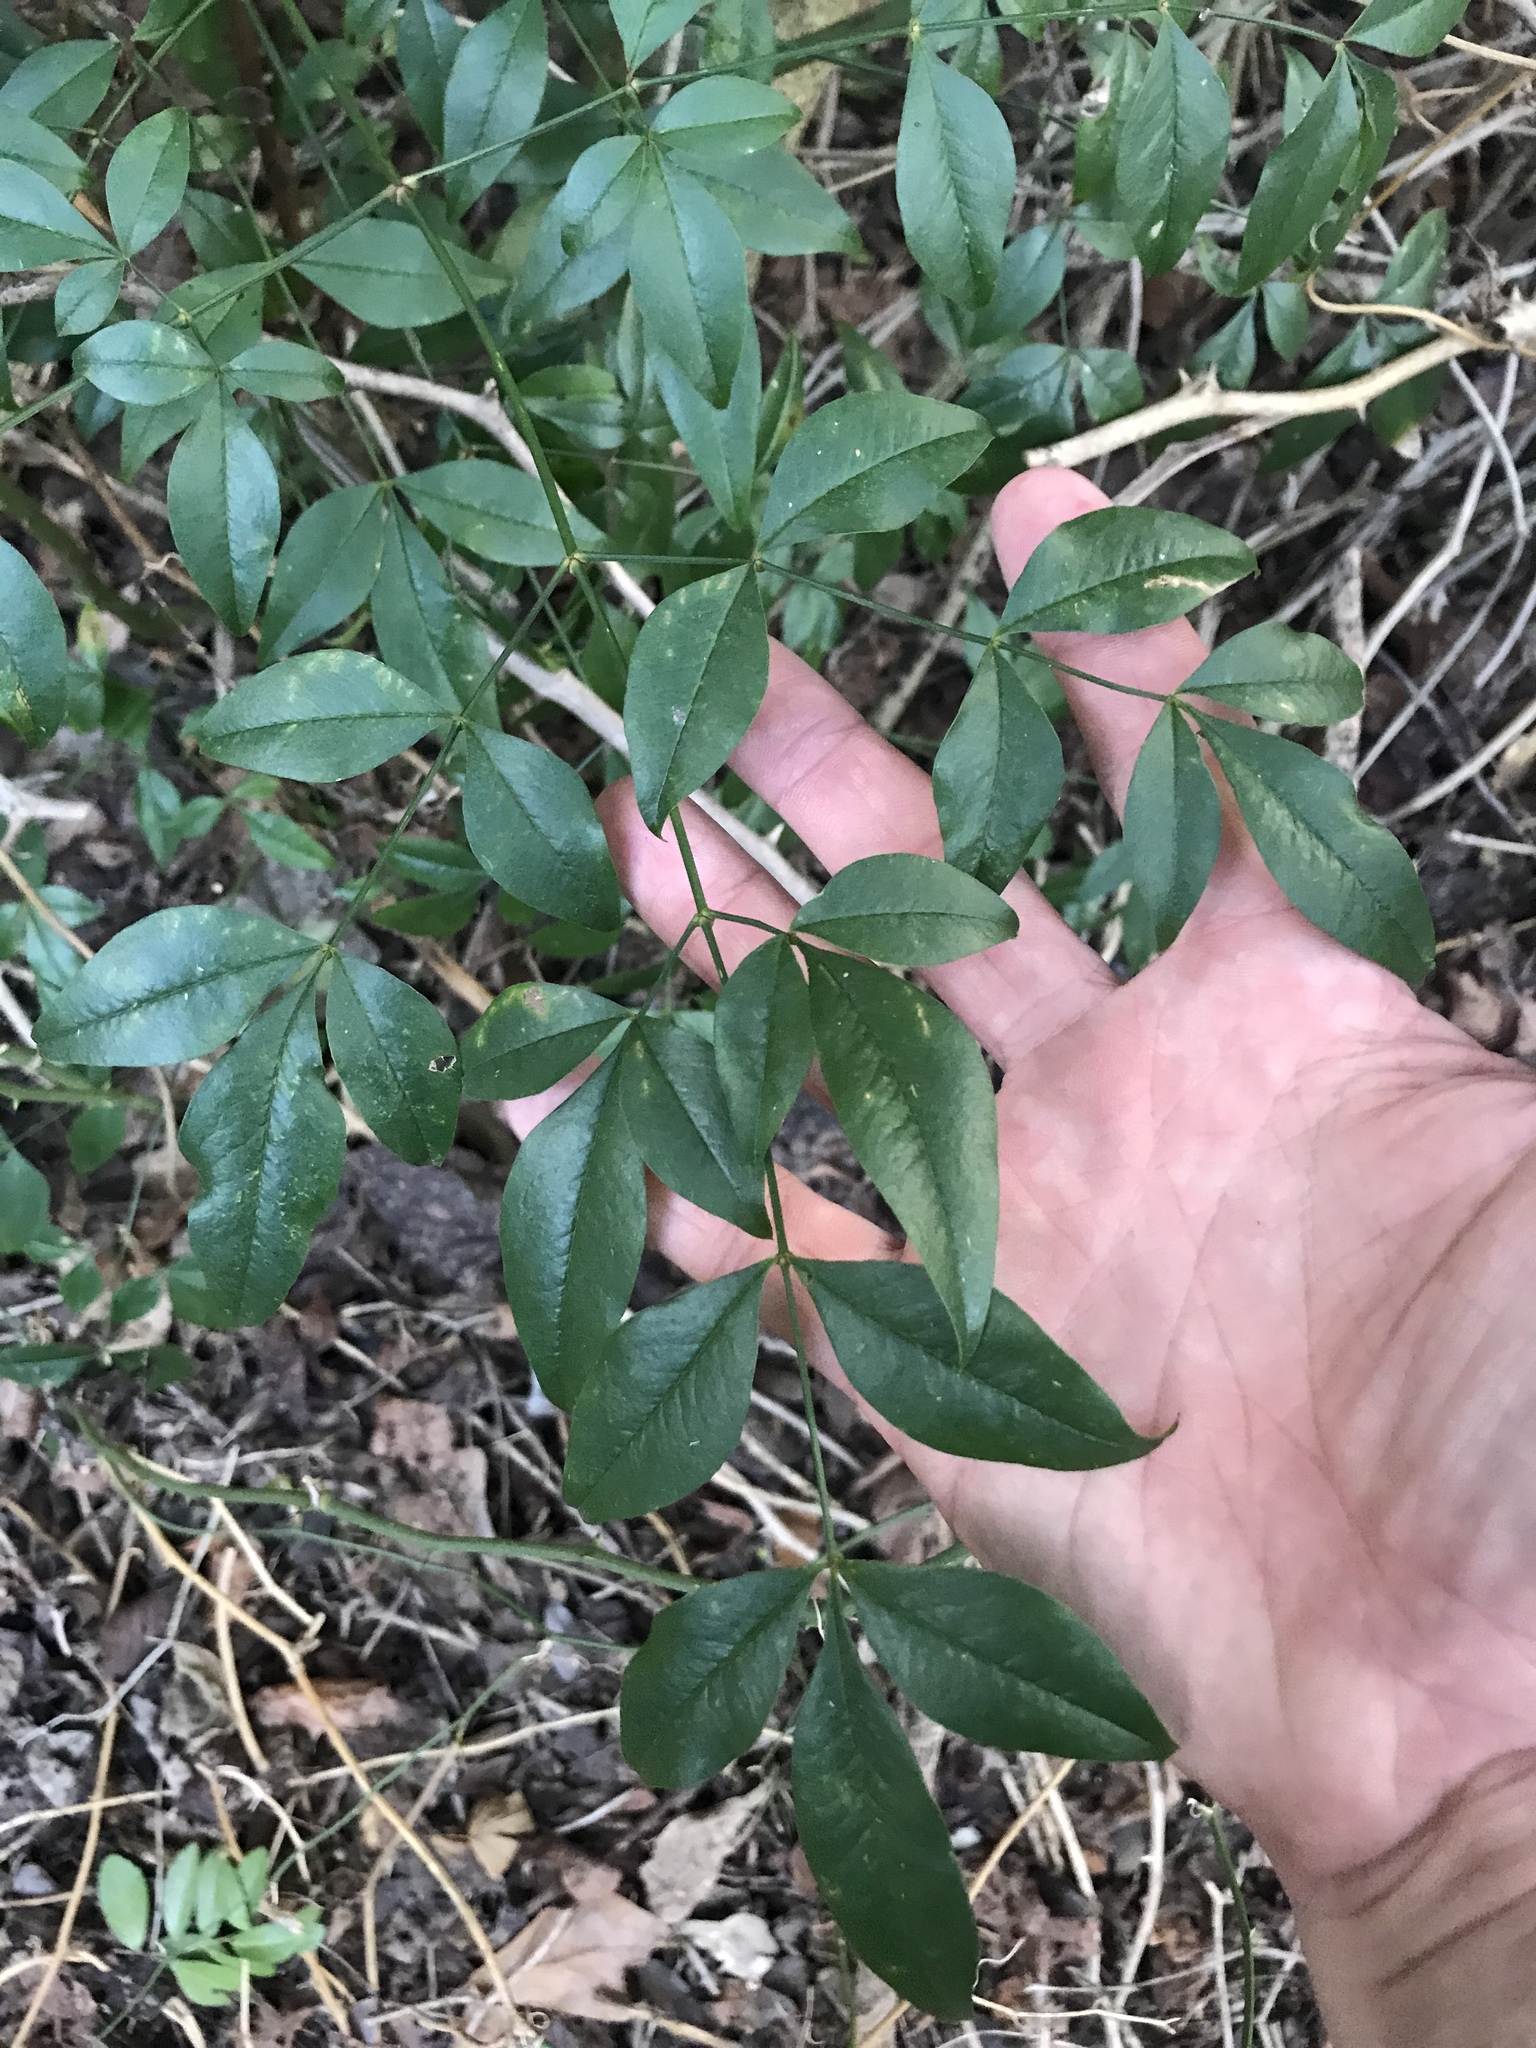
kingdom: Plantae
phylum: Tracheophyta
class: Magnoliopsida
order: Ranunculales
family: Berberidaceae
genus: Nandina
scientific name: Nandina domestica
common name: Sacred bamboo
